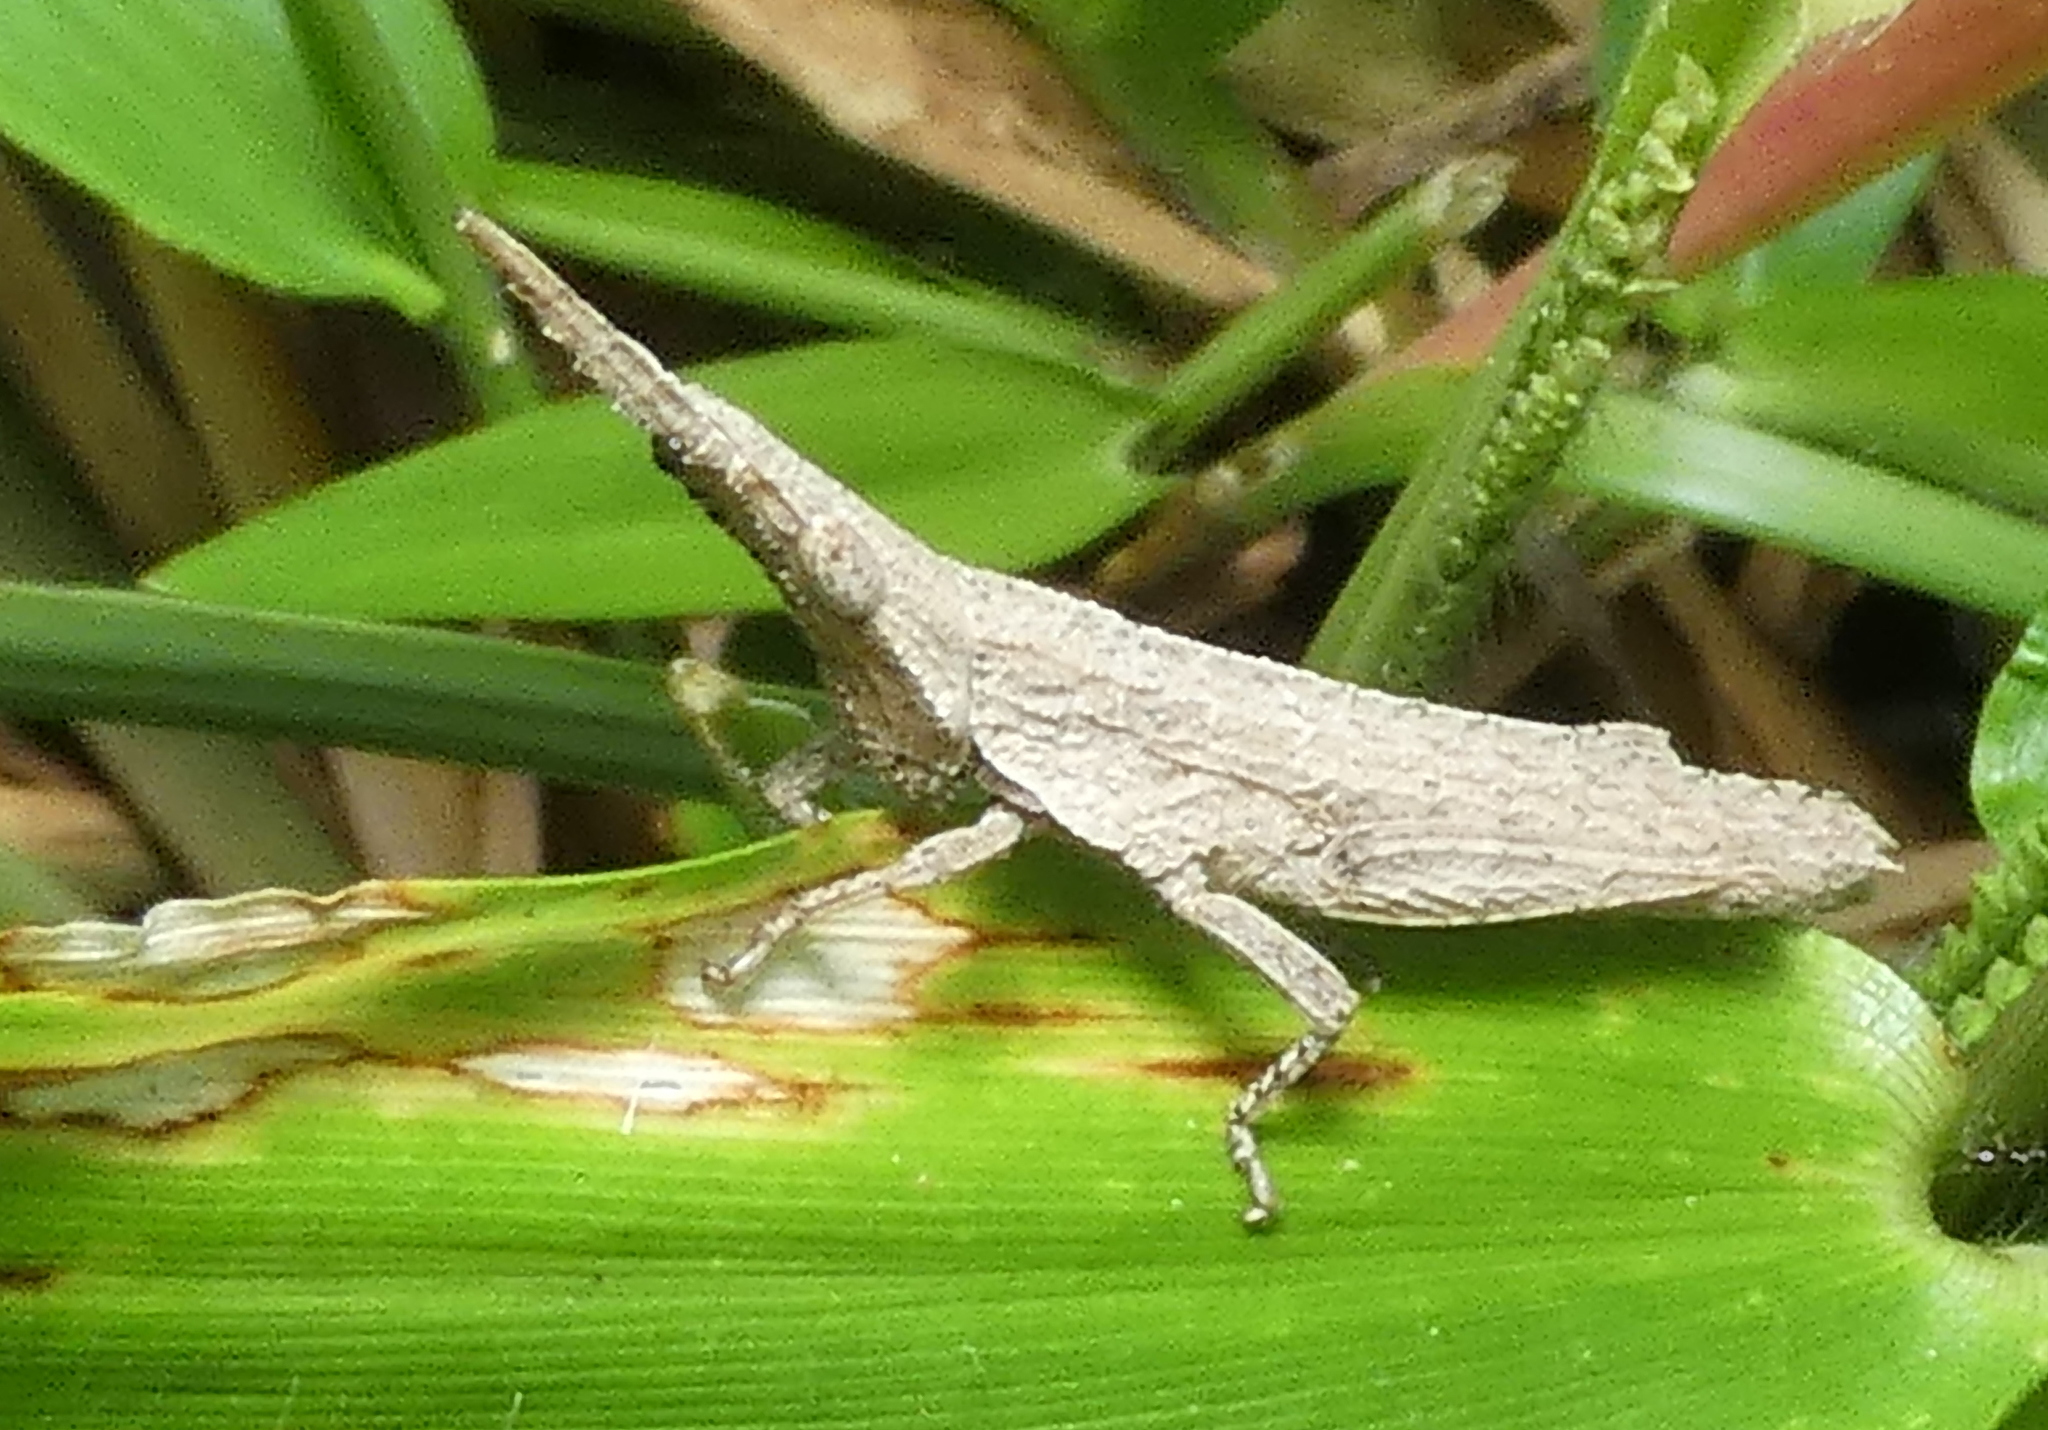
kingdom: Animalia
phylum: Arthropoda
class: Insecta
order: Orthoptera
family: Pyrgomorphidae
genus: Algete
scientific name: Algete brunneri
